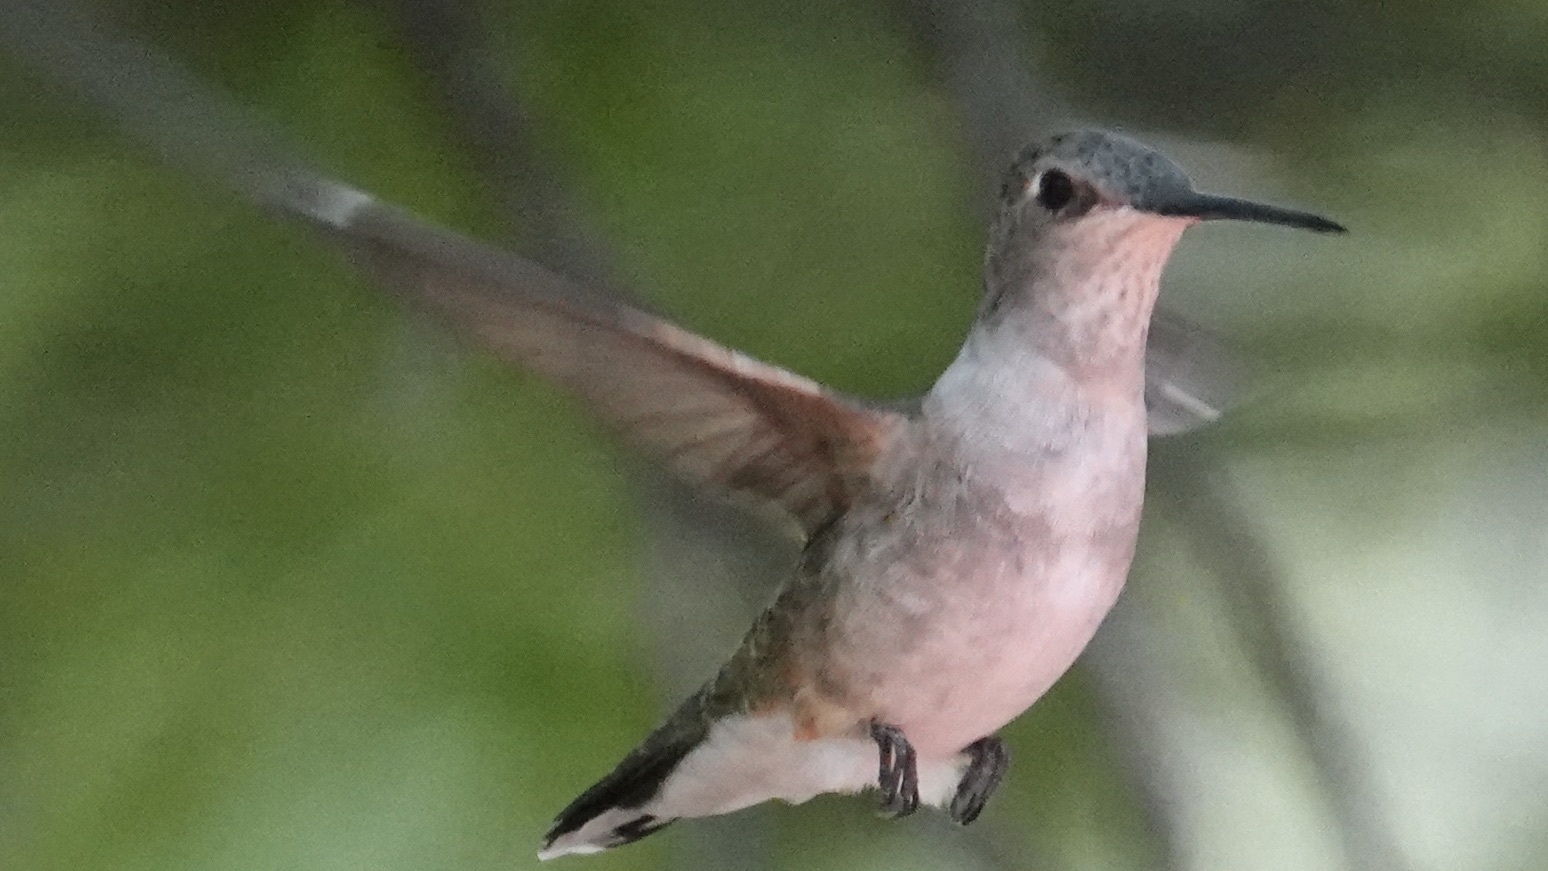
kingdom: Animalia
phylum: Chordata
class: Aves
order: Apodiformes
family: Trochilidae
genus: Archilochus
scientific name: Archilochus alexandri
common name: Black-chinned hummingbird
